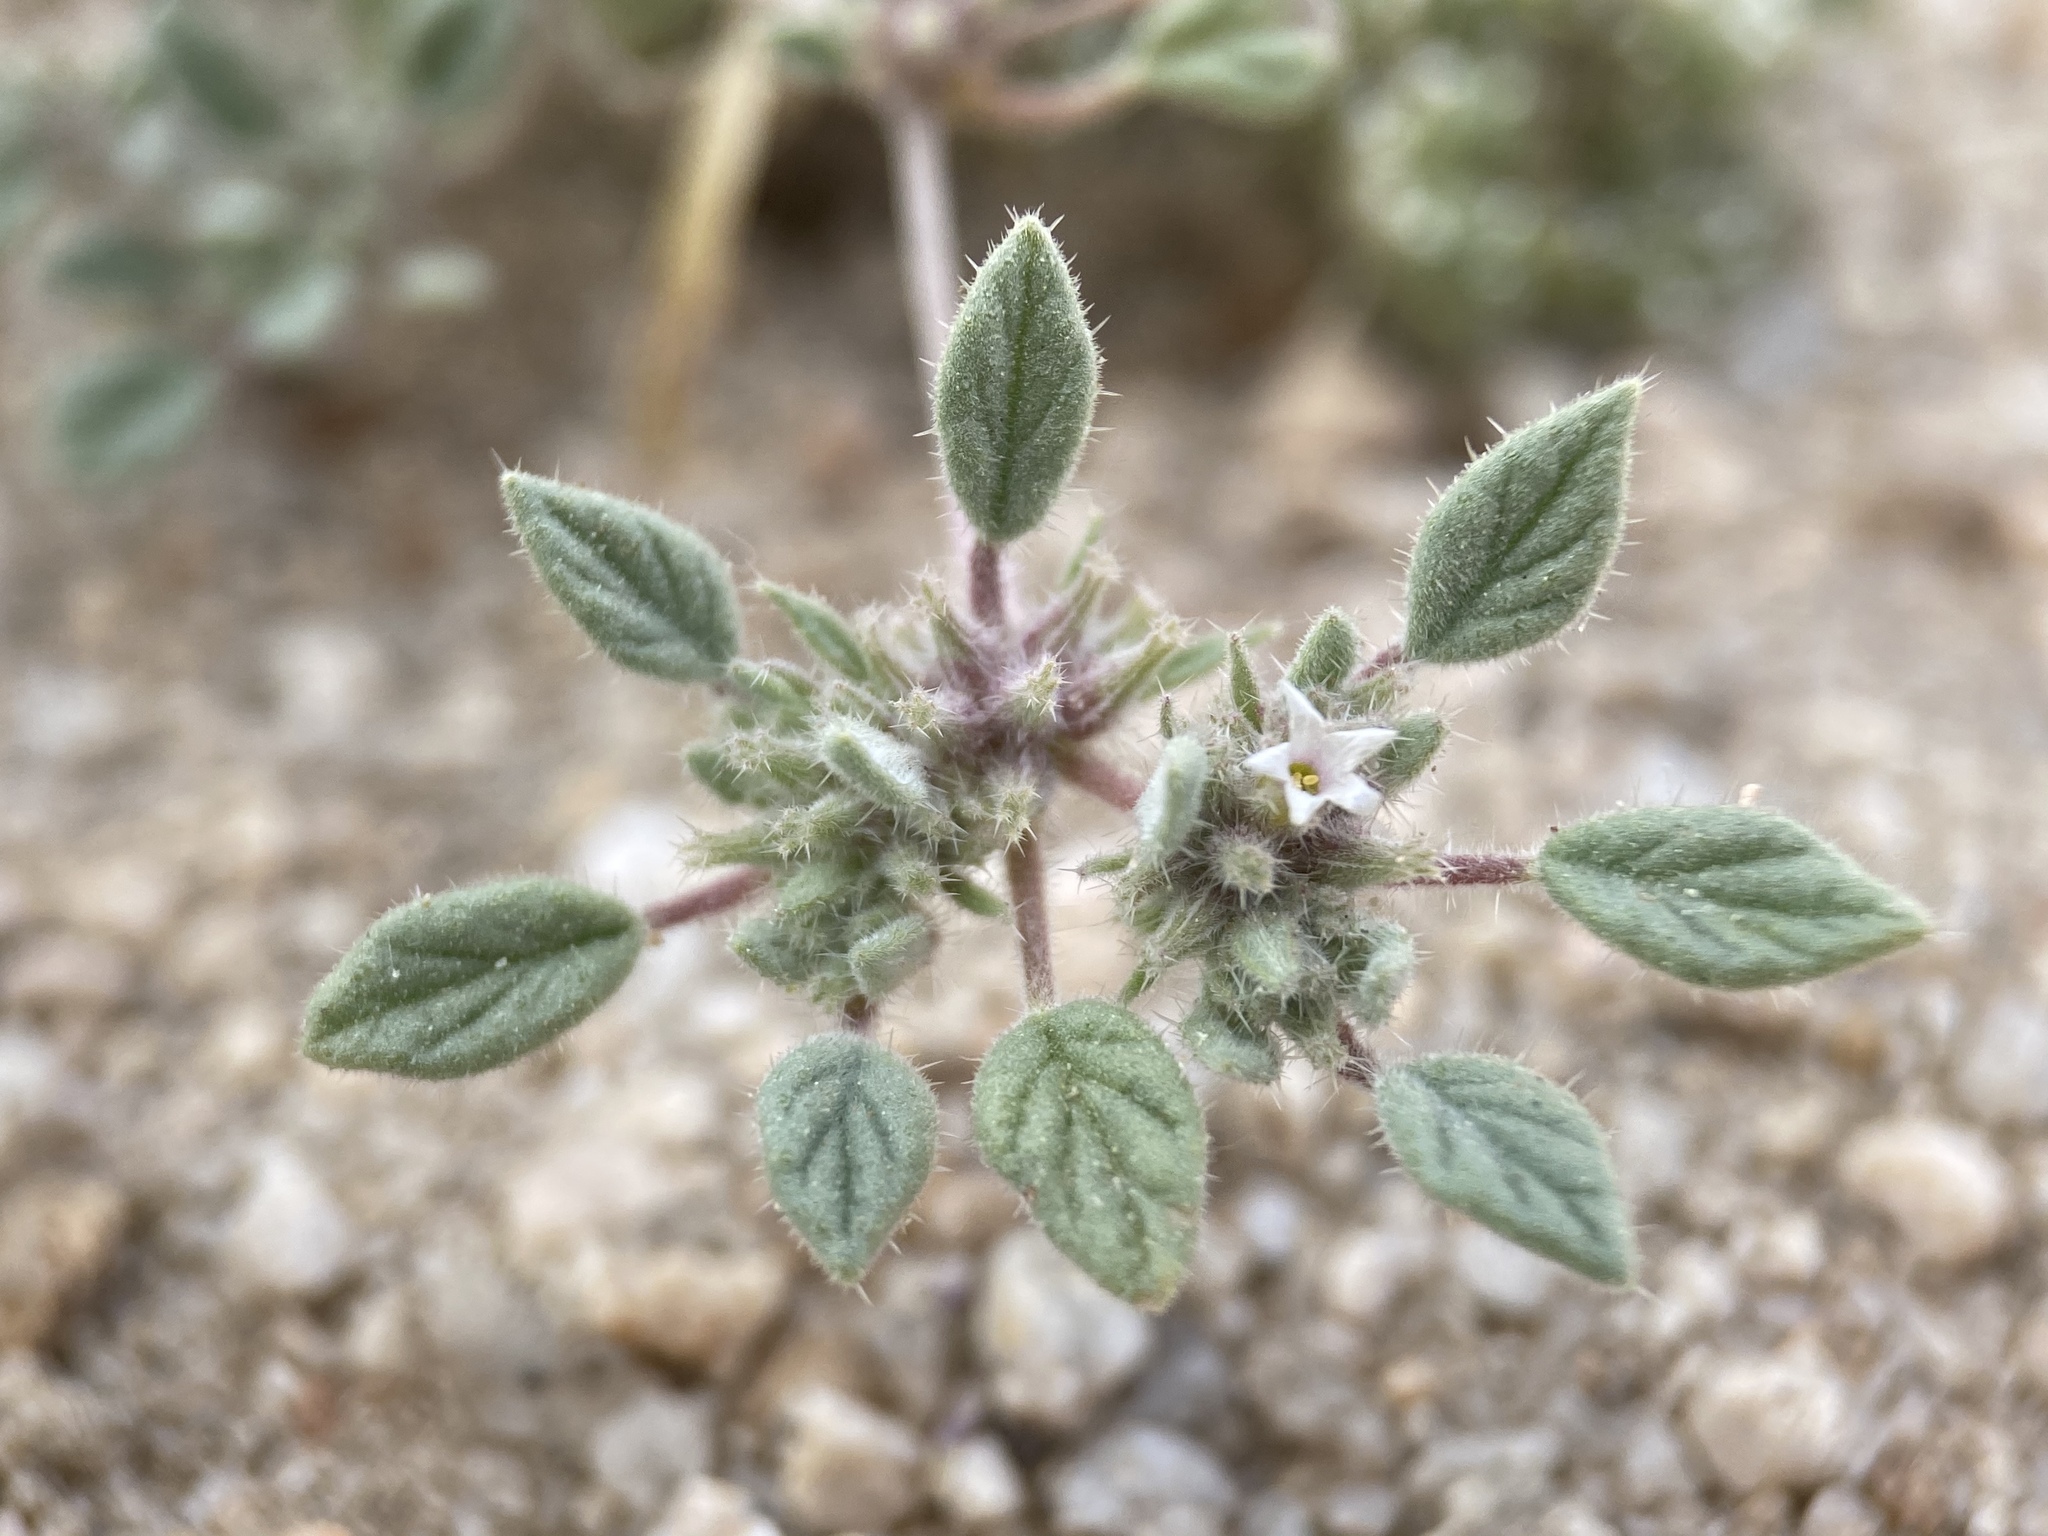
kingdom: Plantae
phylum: Tracheophyta
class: Magnoliopsida
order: Boraginales
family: Ehretiaceae
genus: Tiquilia
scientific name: Tiquilia nuttallii
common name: Rosette tiquilia
